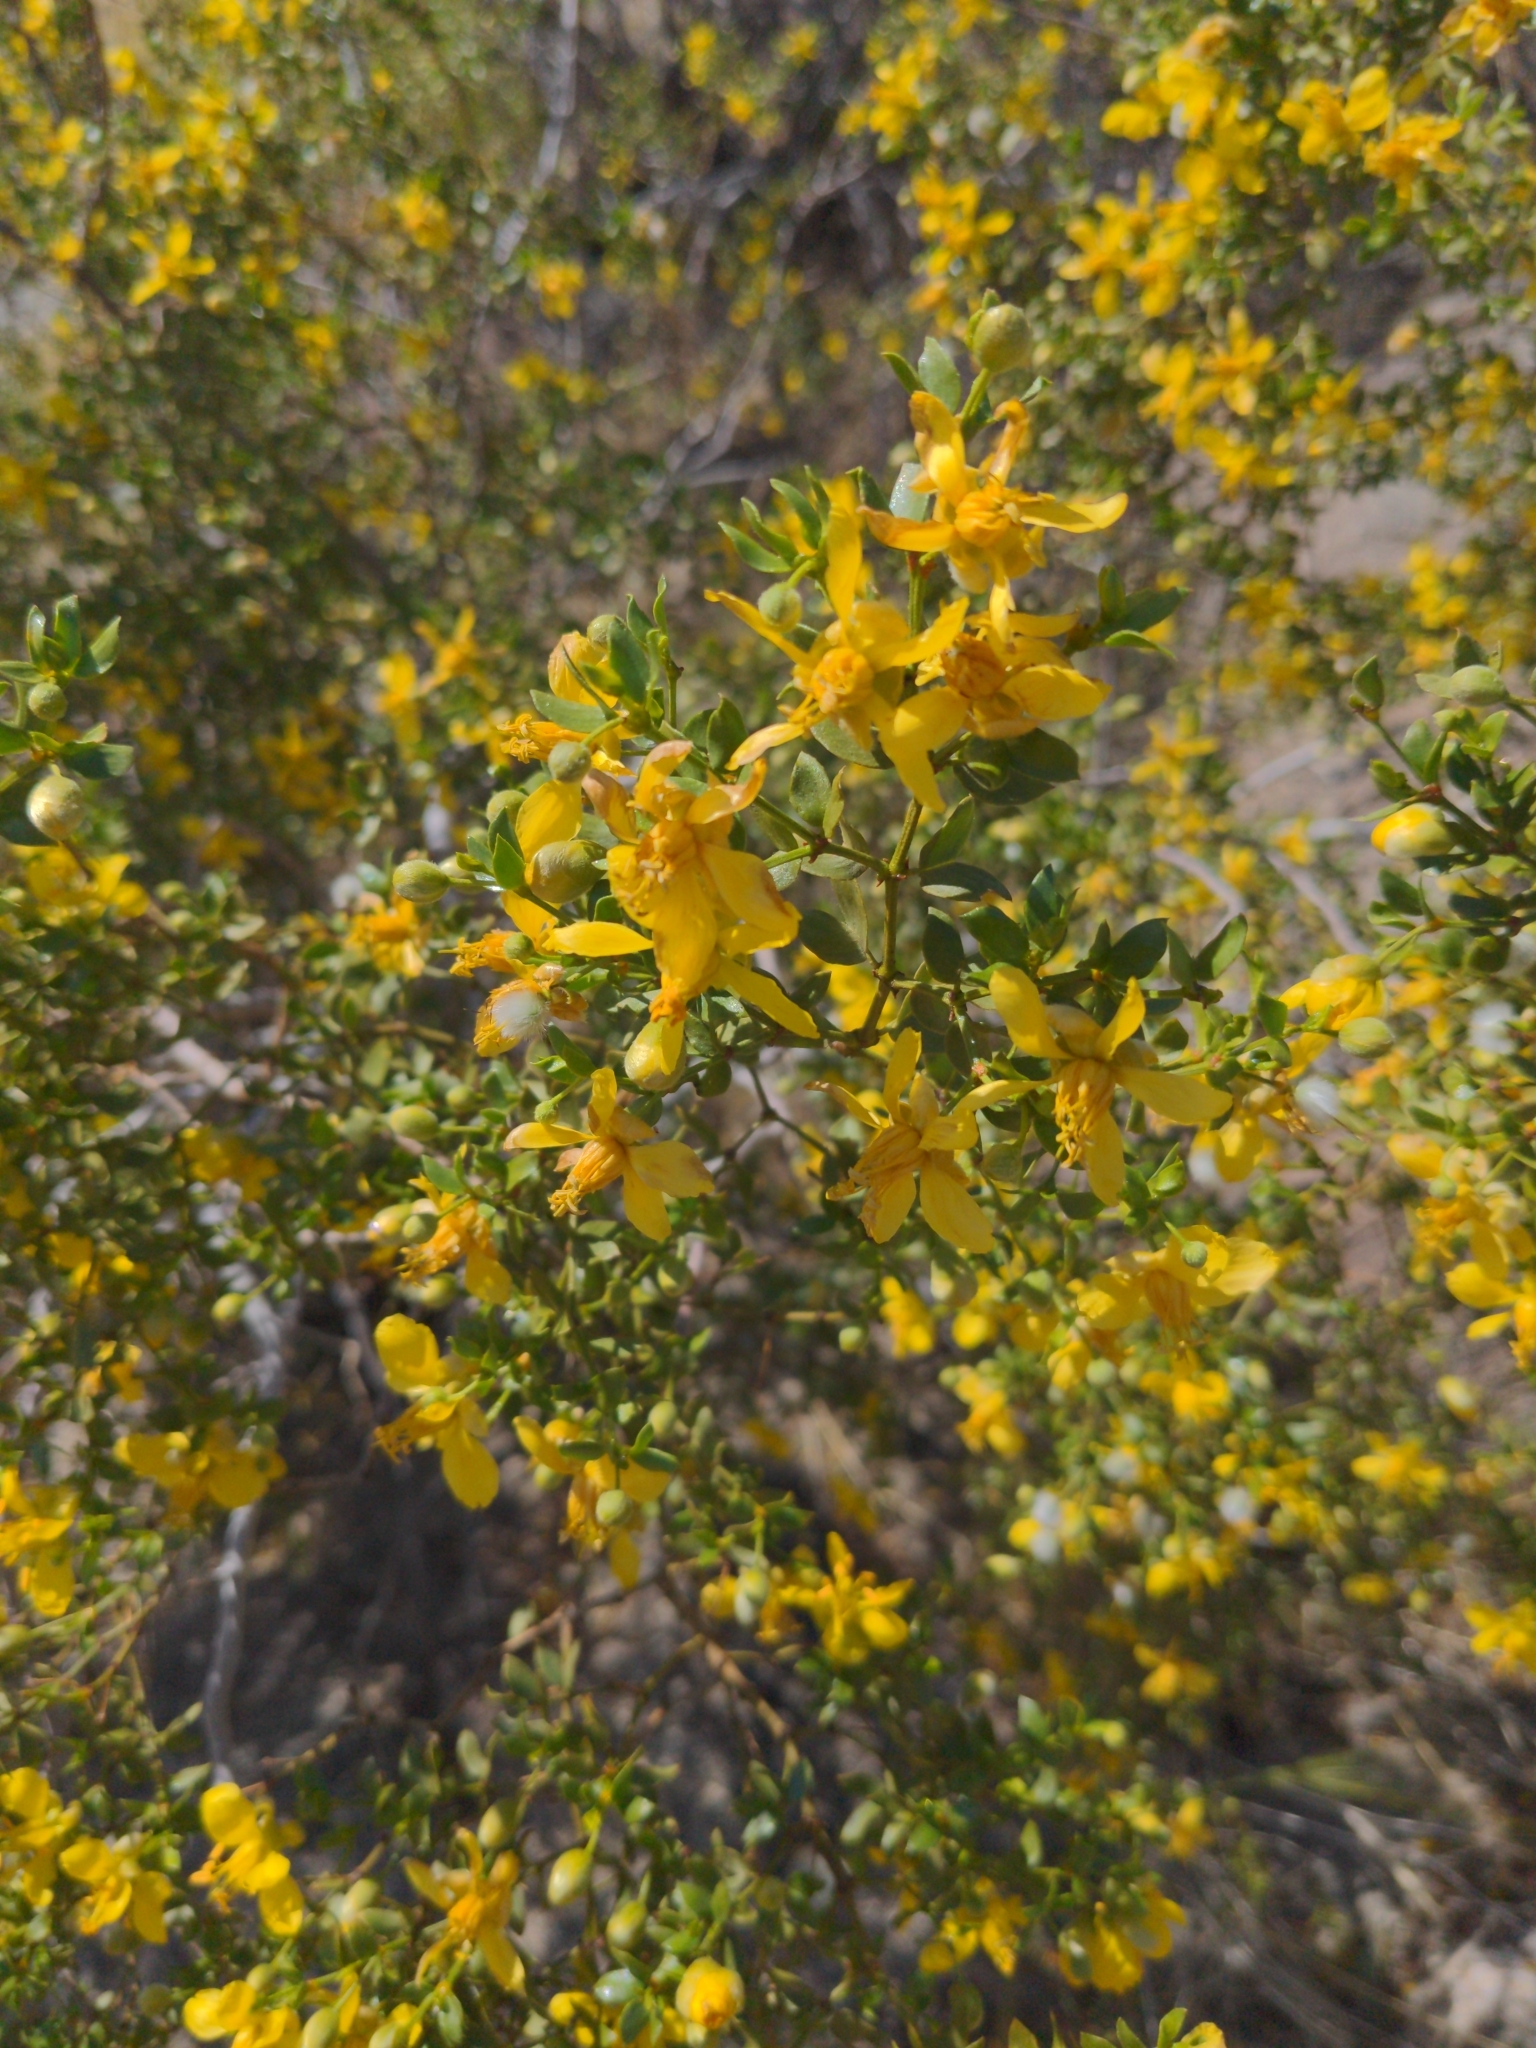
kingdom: Plantae
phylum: Tracheophyta
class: Magnoliopsida
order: Zygophyllales
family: Zygophyllaceae
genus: Larrea
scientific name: Larrea tridentata
